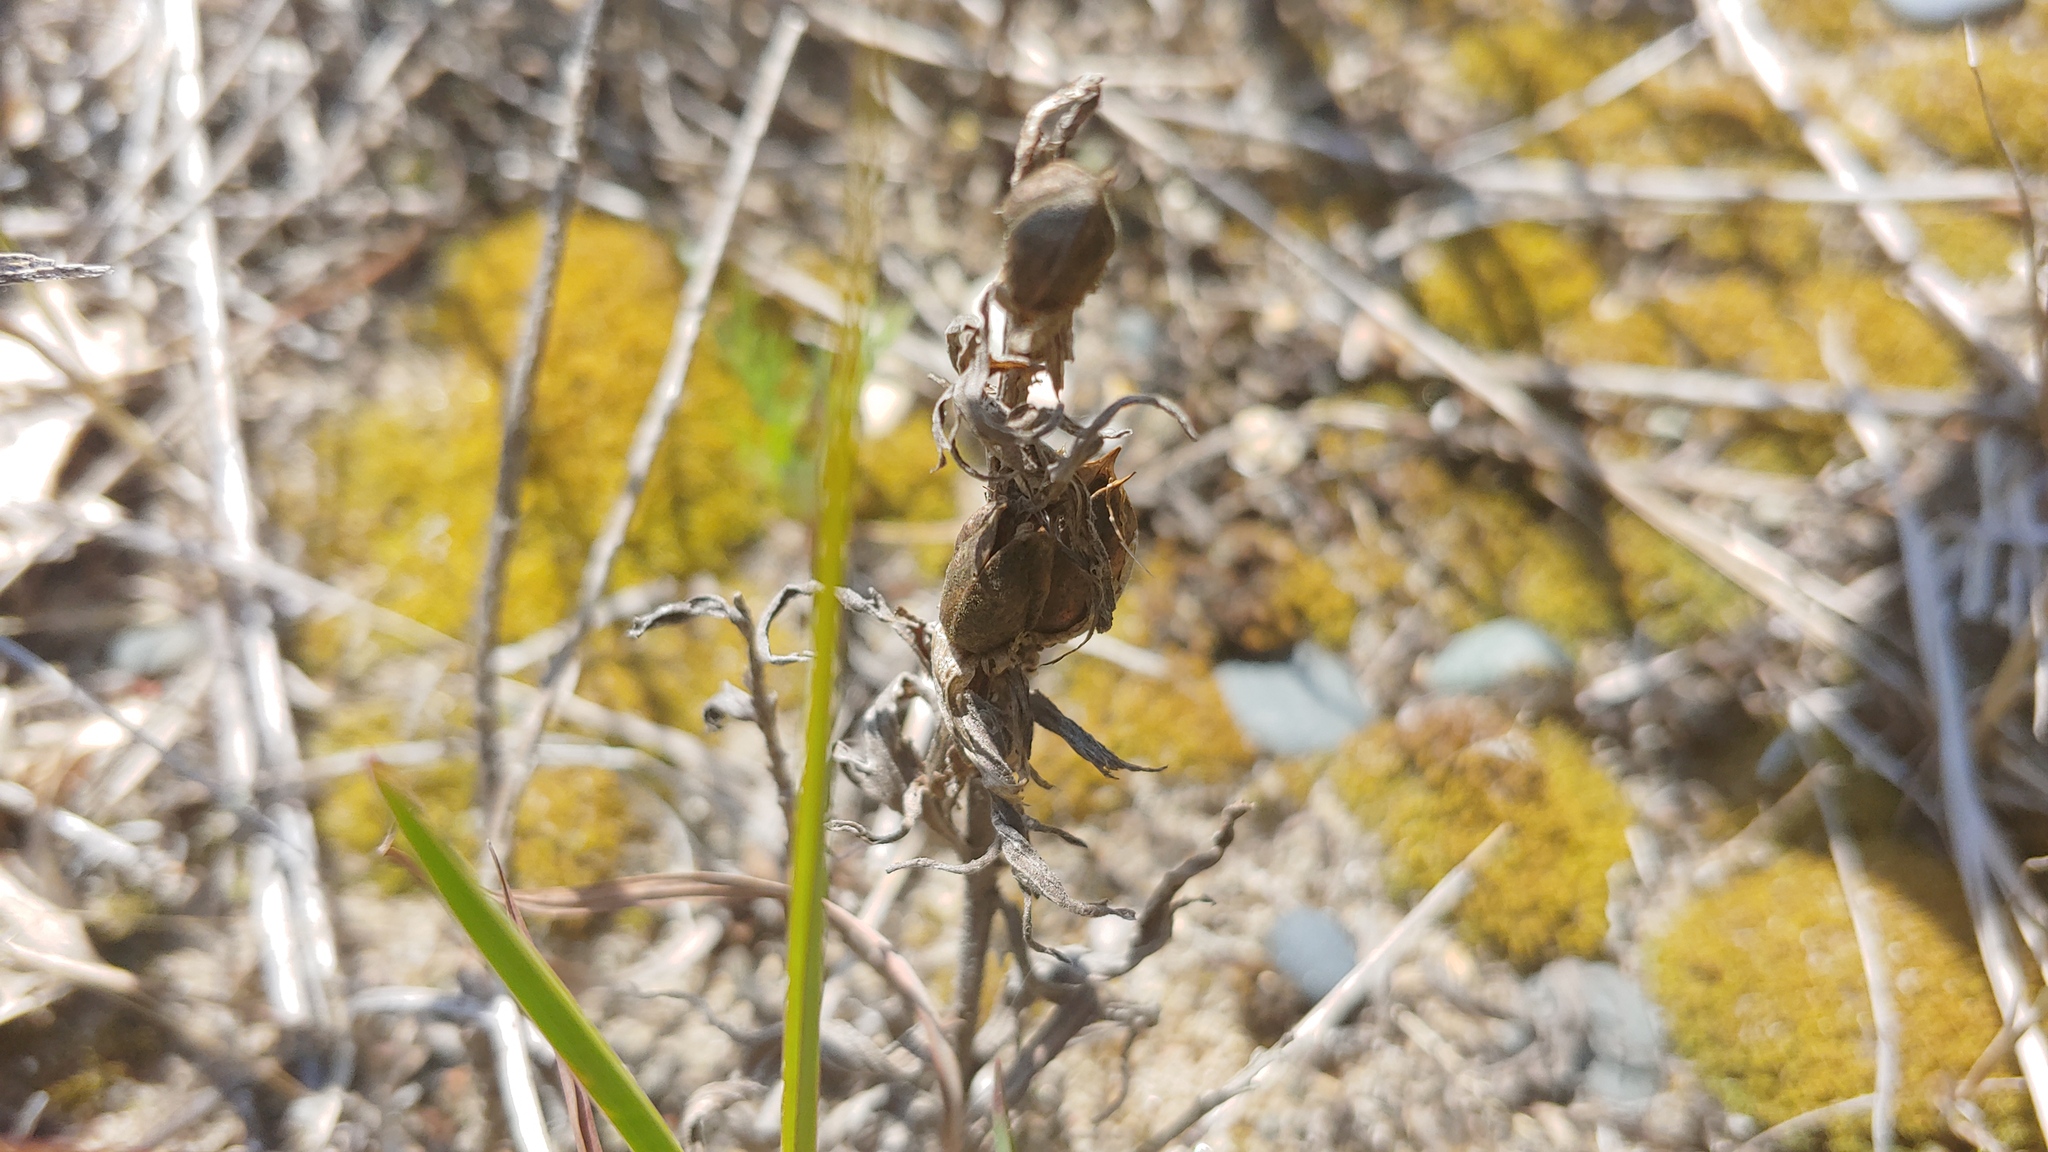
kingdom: Plantae
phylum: Tracheophyta
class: Magnoliopsida
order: Lamiales
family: Orobanchaceae
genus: Castilleja
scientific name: Castilleja sessiliflora
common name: Downy paintbrush
